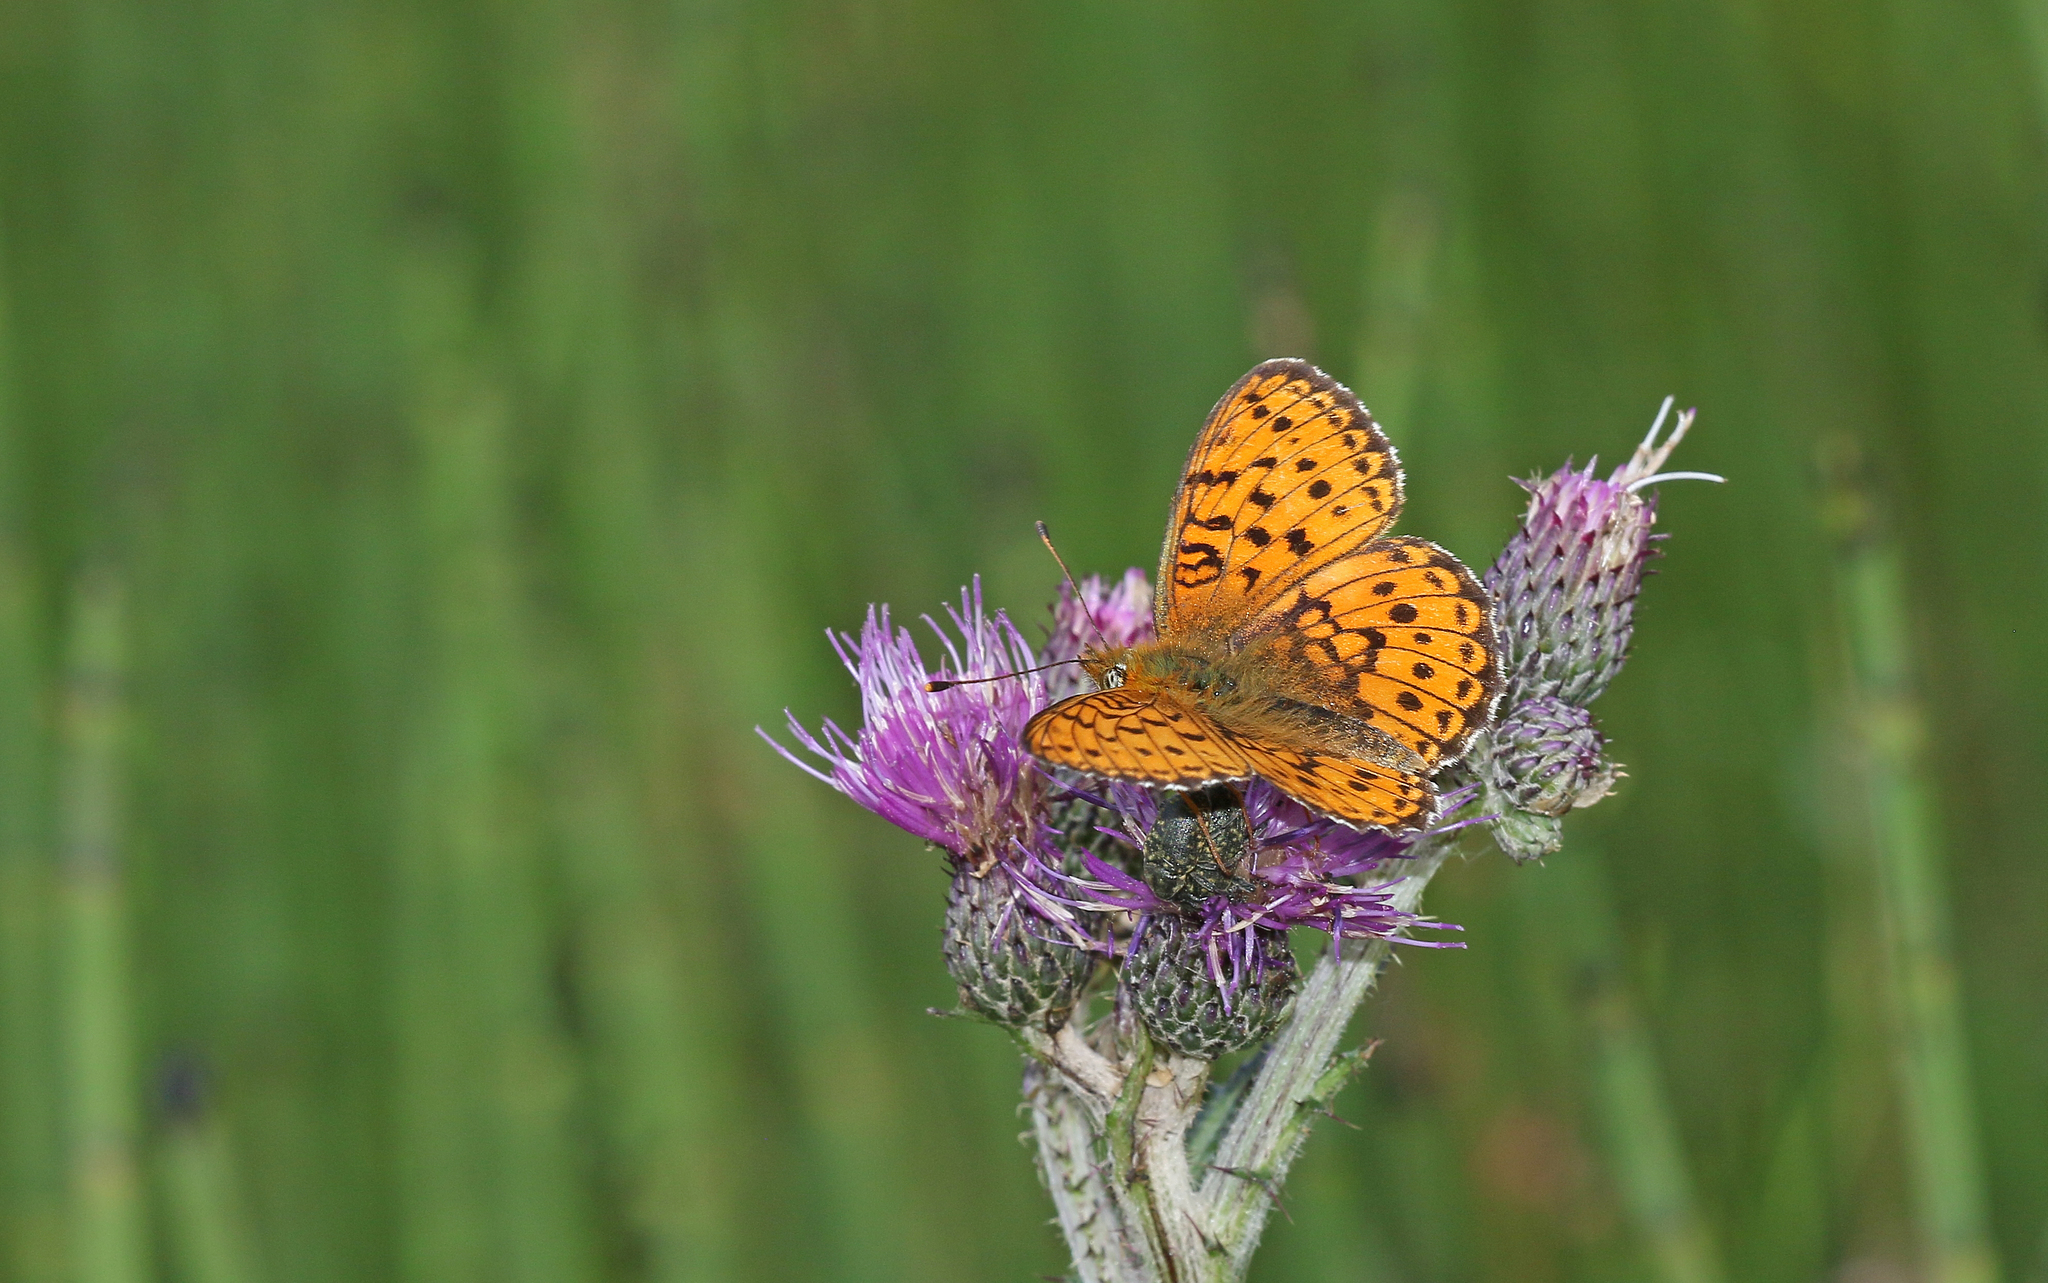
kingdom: Animalia
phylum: Arthropoda
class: Insecta
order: Lepidoptera
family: Nymphalidae
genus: Brenthis
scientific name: Brenthis ino
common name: Lesser marbled fritillary
